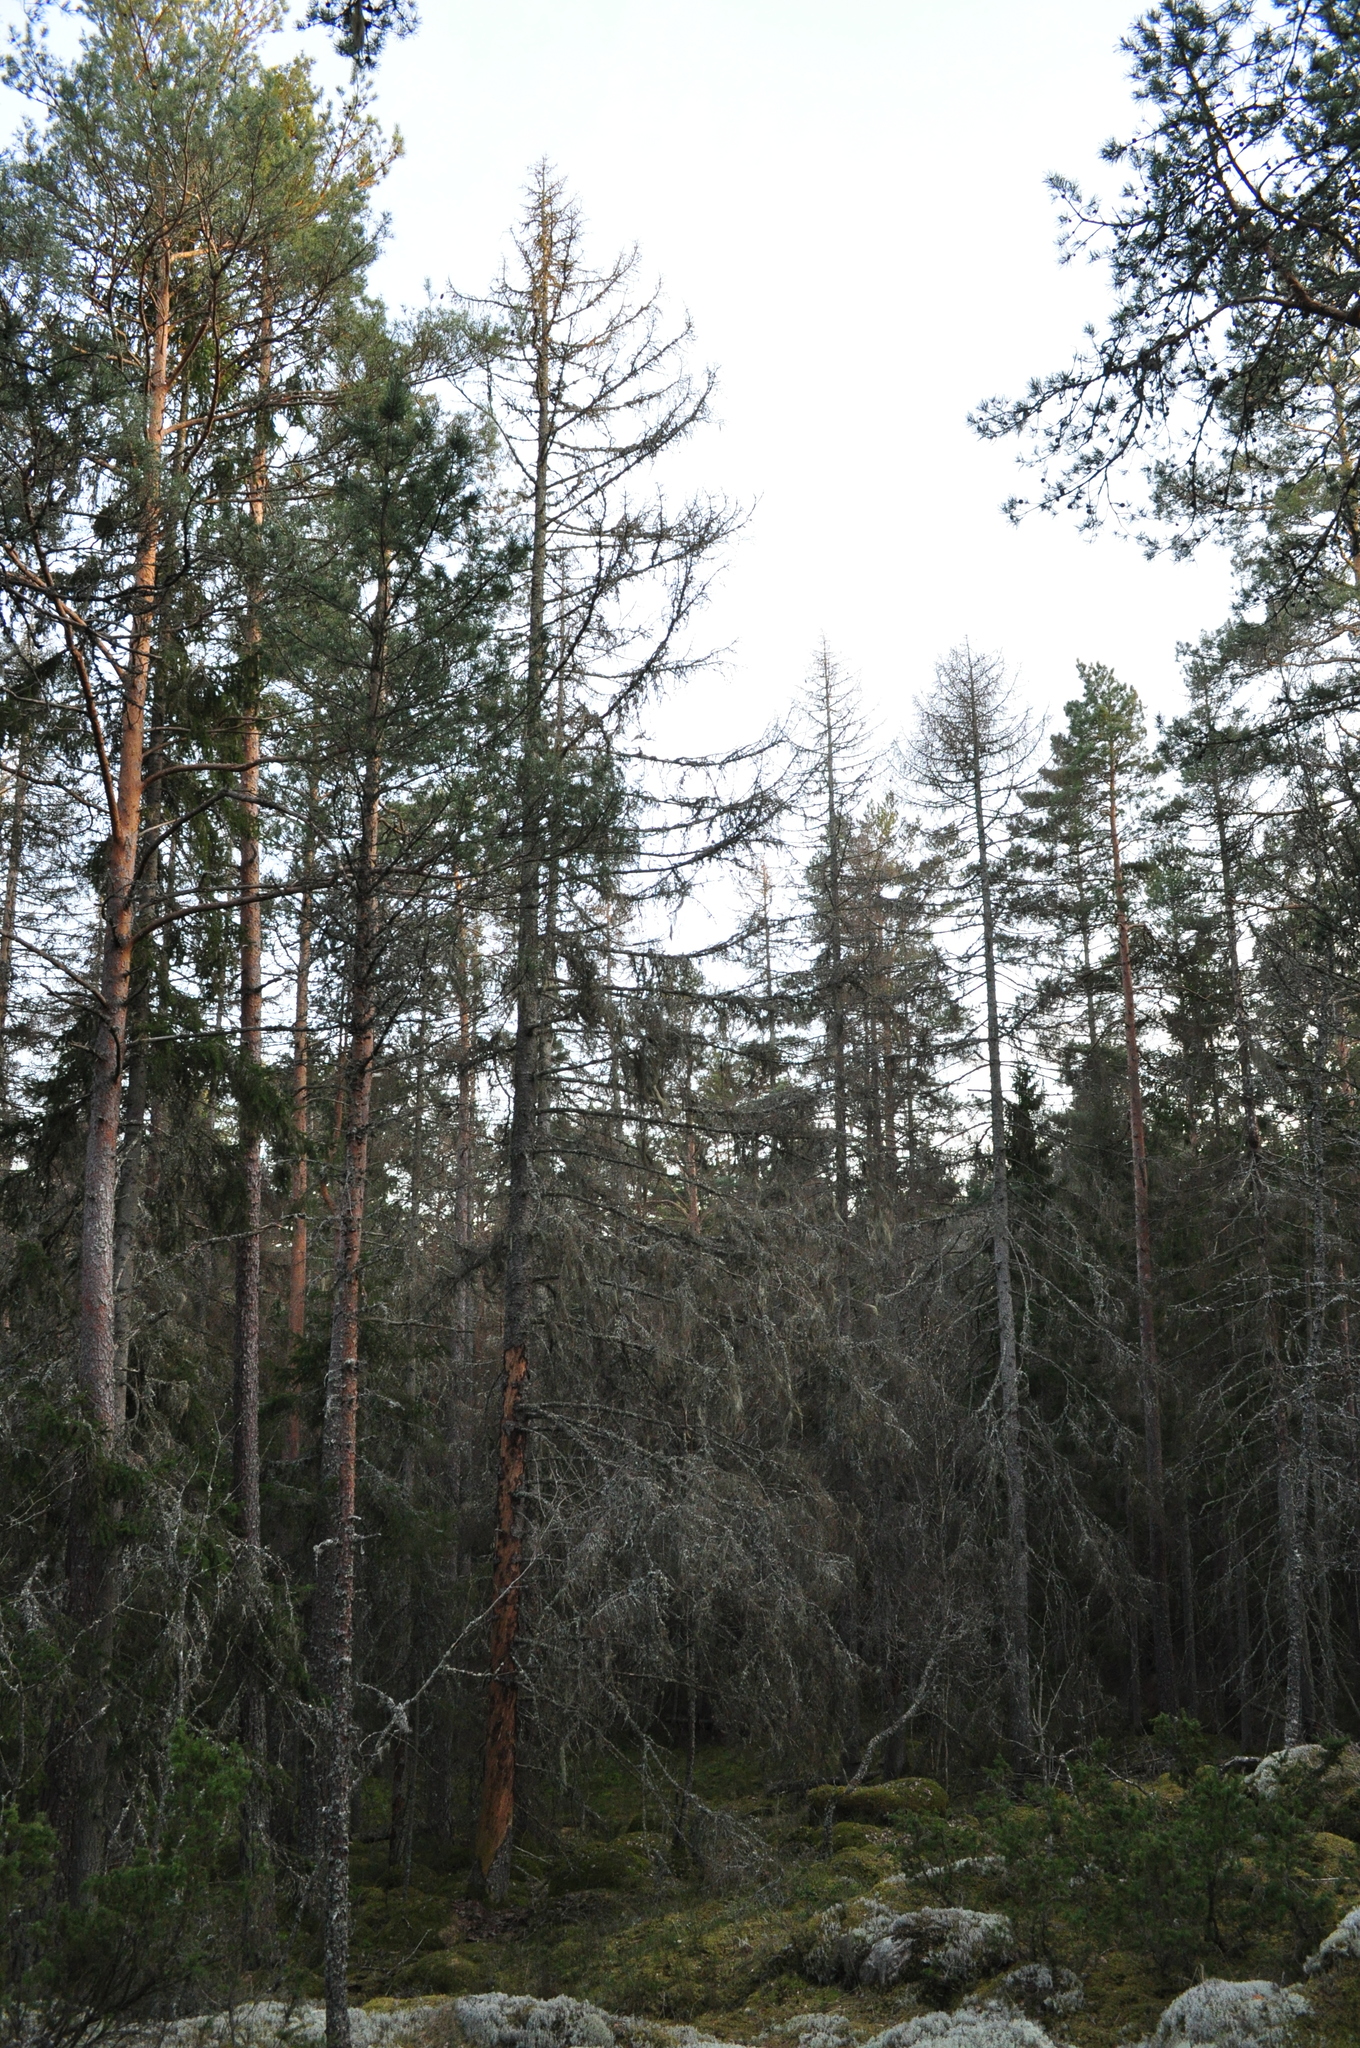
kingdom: Plantae
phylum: Tracheophyta
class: Pinopsida
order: Pinales
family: Pinaceae
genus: Picea
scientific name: Picea abies
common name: Norway spruce
